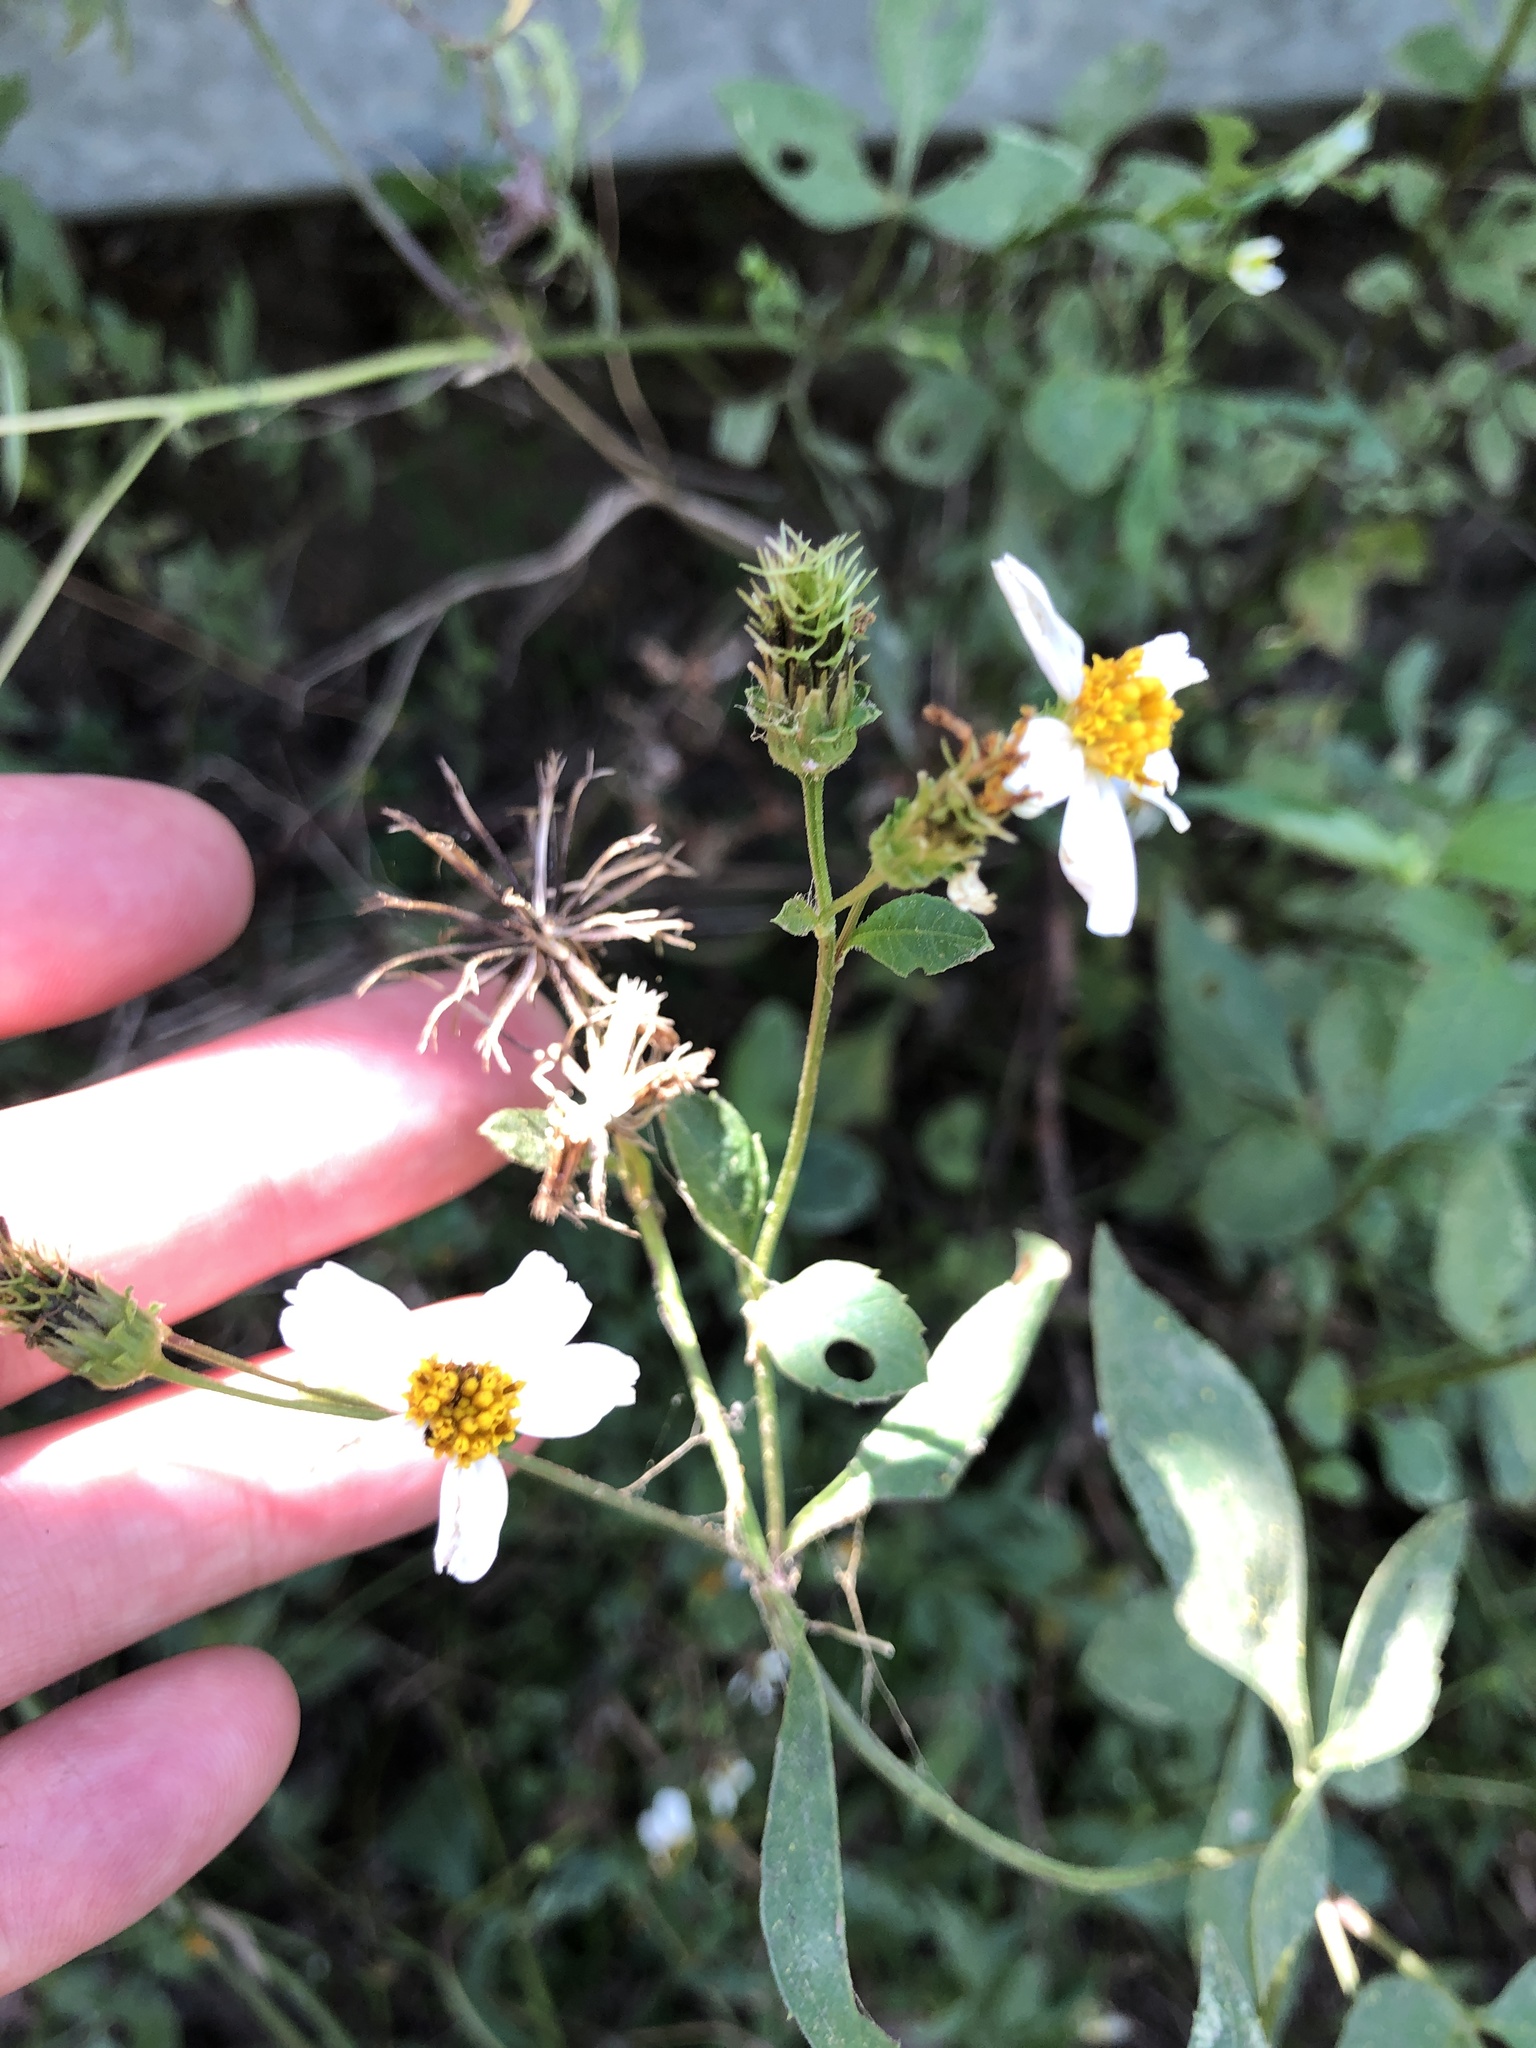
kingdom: Plantae
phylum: Tracheophyta
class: Magnoliopsida
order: Asterales
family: Asteraceae
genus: Bidens
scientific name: Bidens alba
